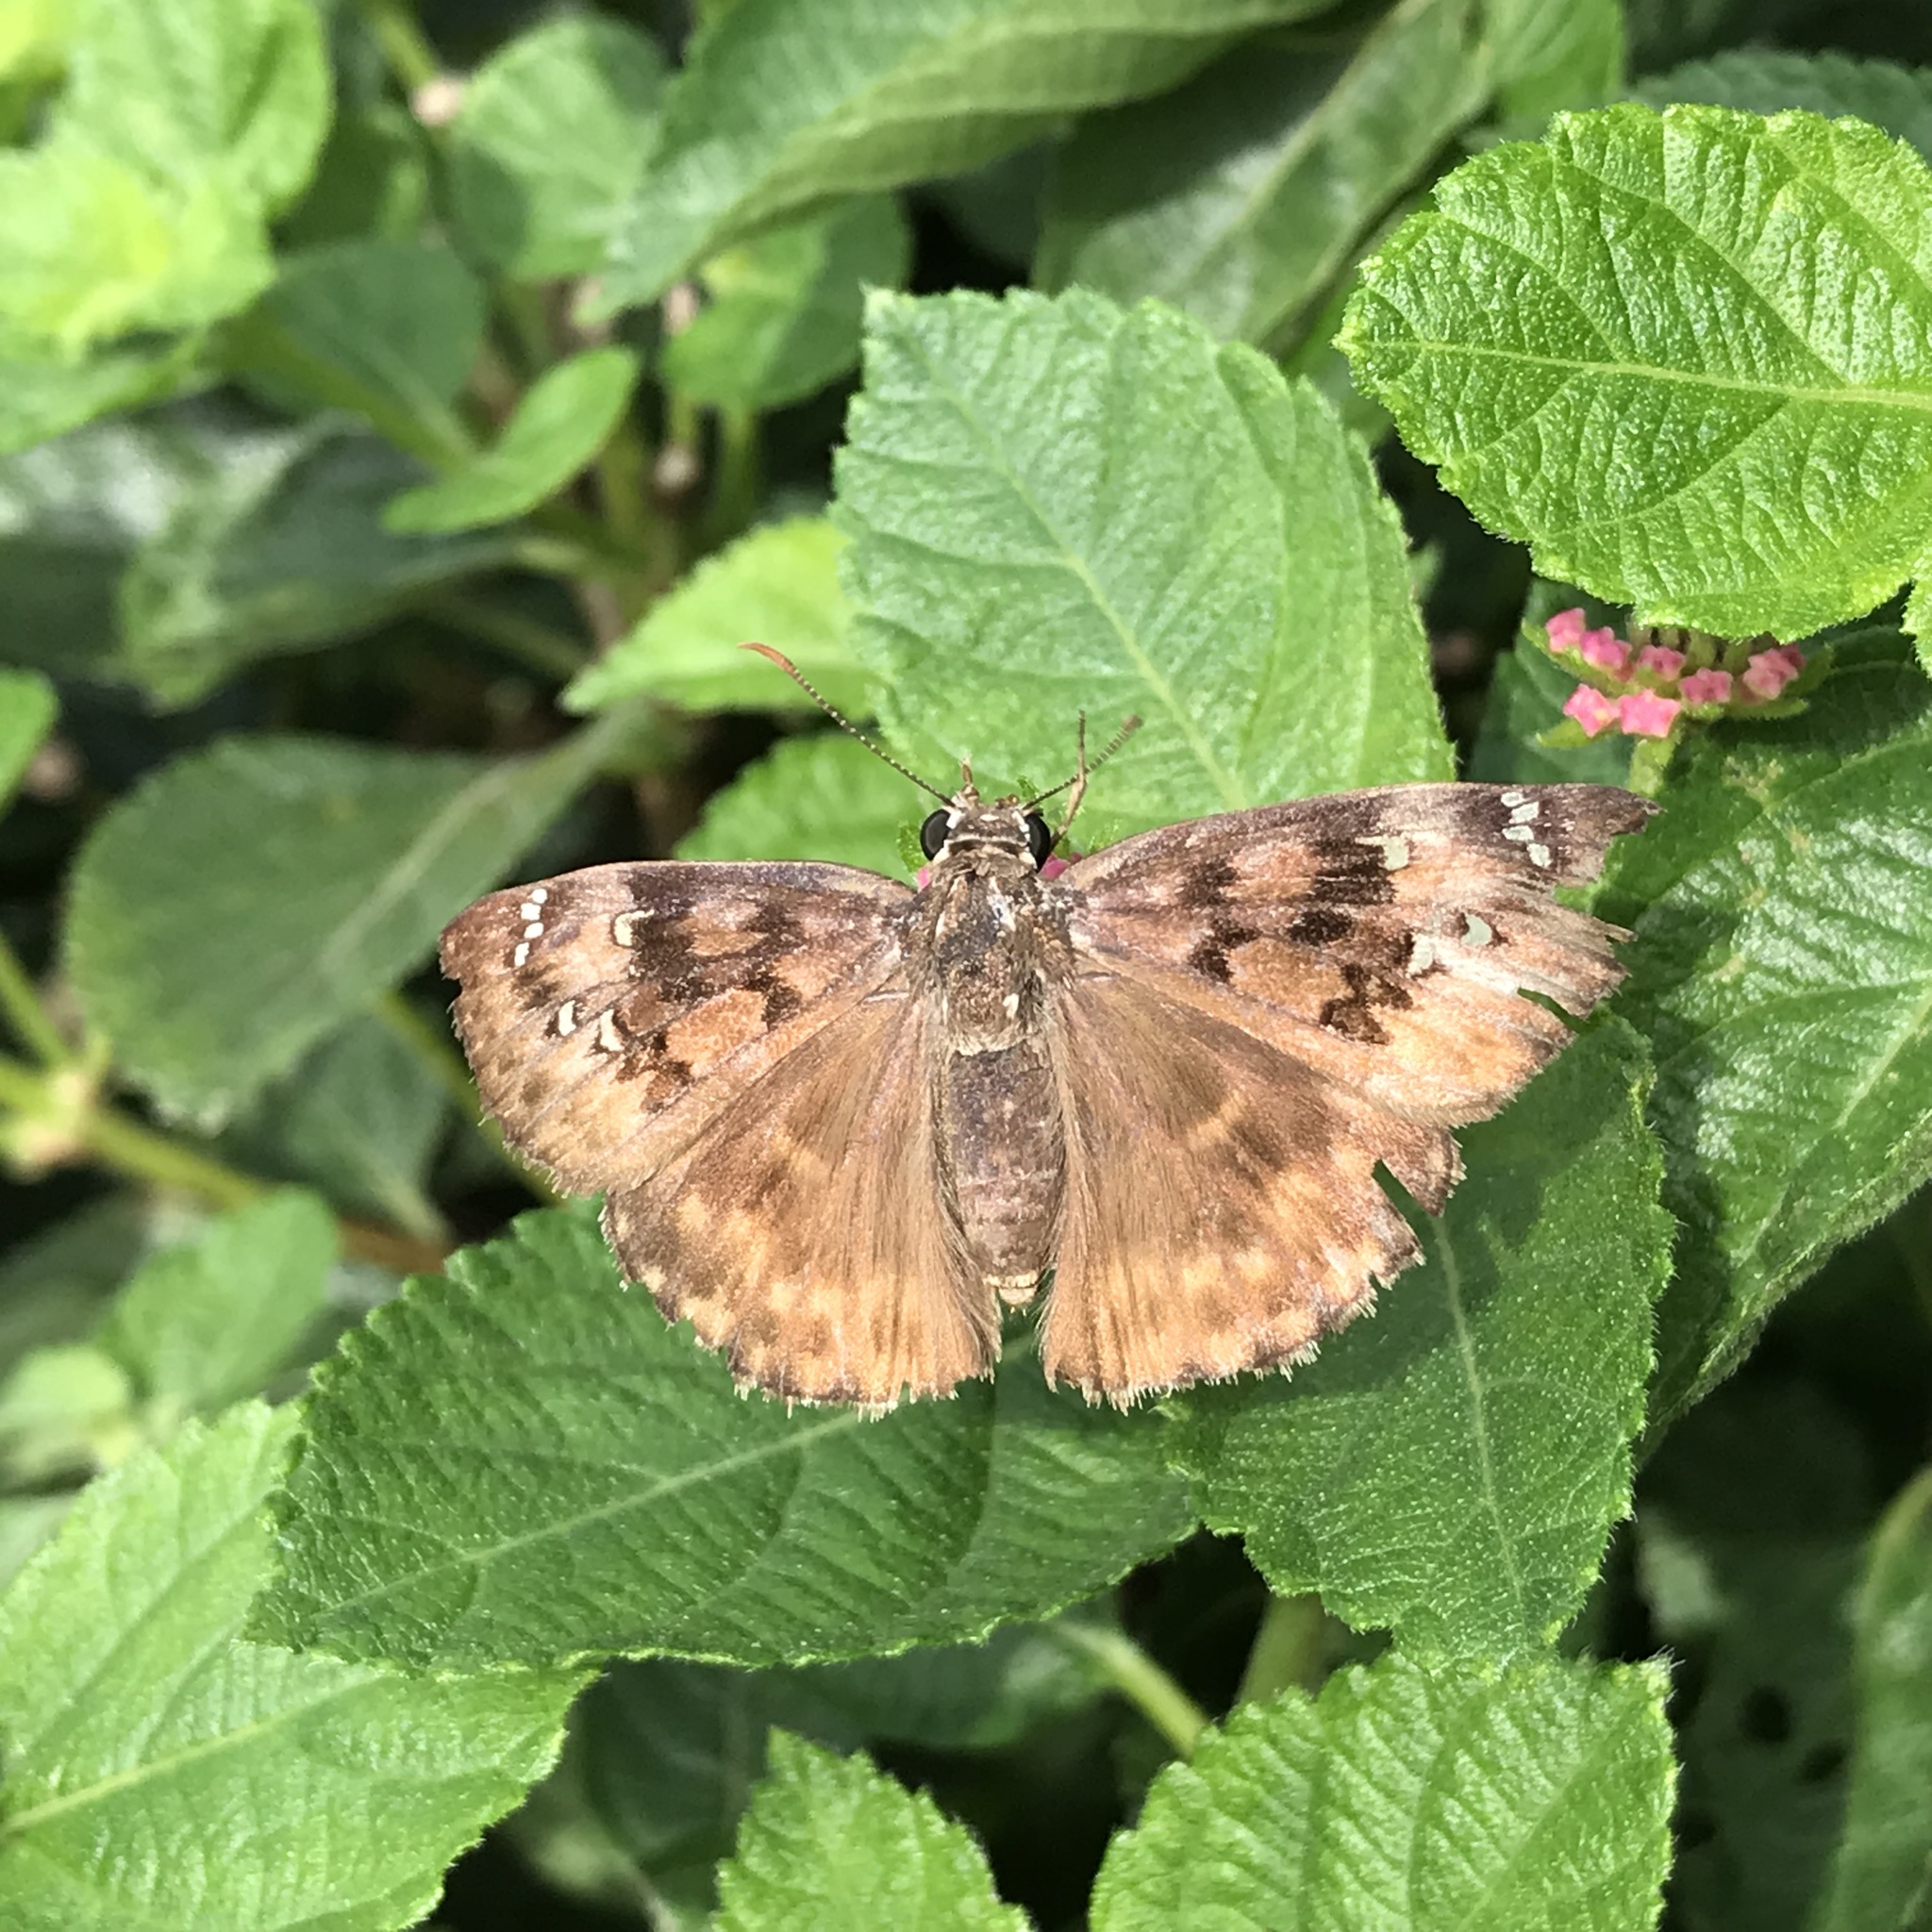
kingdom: Animalia
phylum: Arthropoda
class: Insecta
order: Lepidoptera
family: Hesperiidae
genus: Erynnis
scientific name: Erynnis horatius
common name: Horace's duskywing
